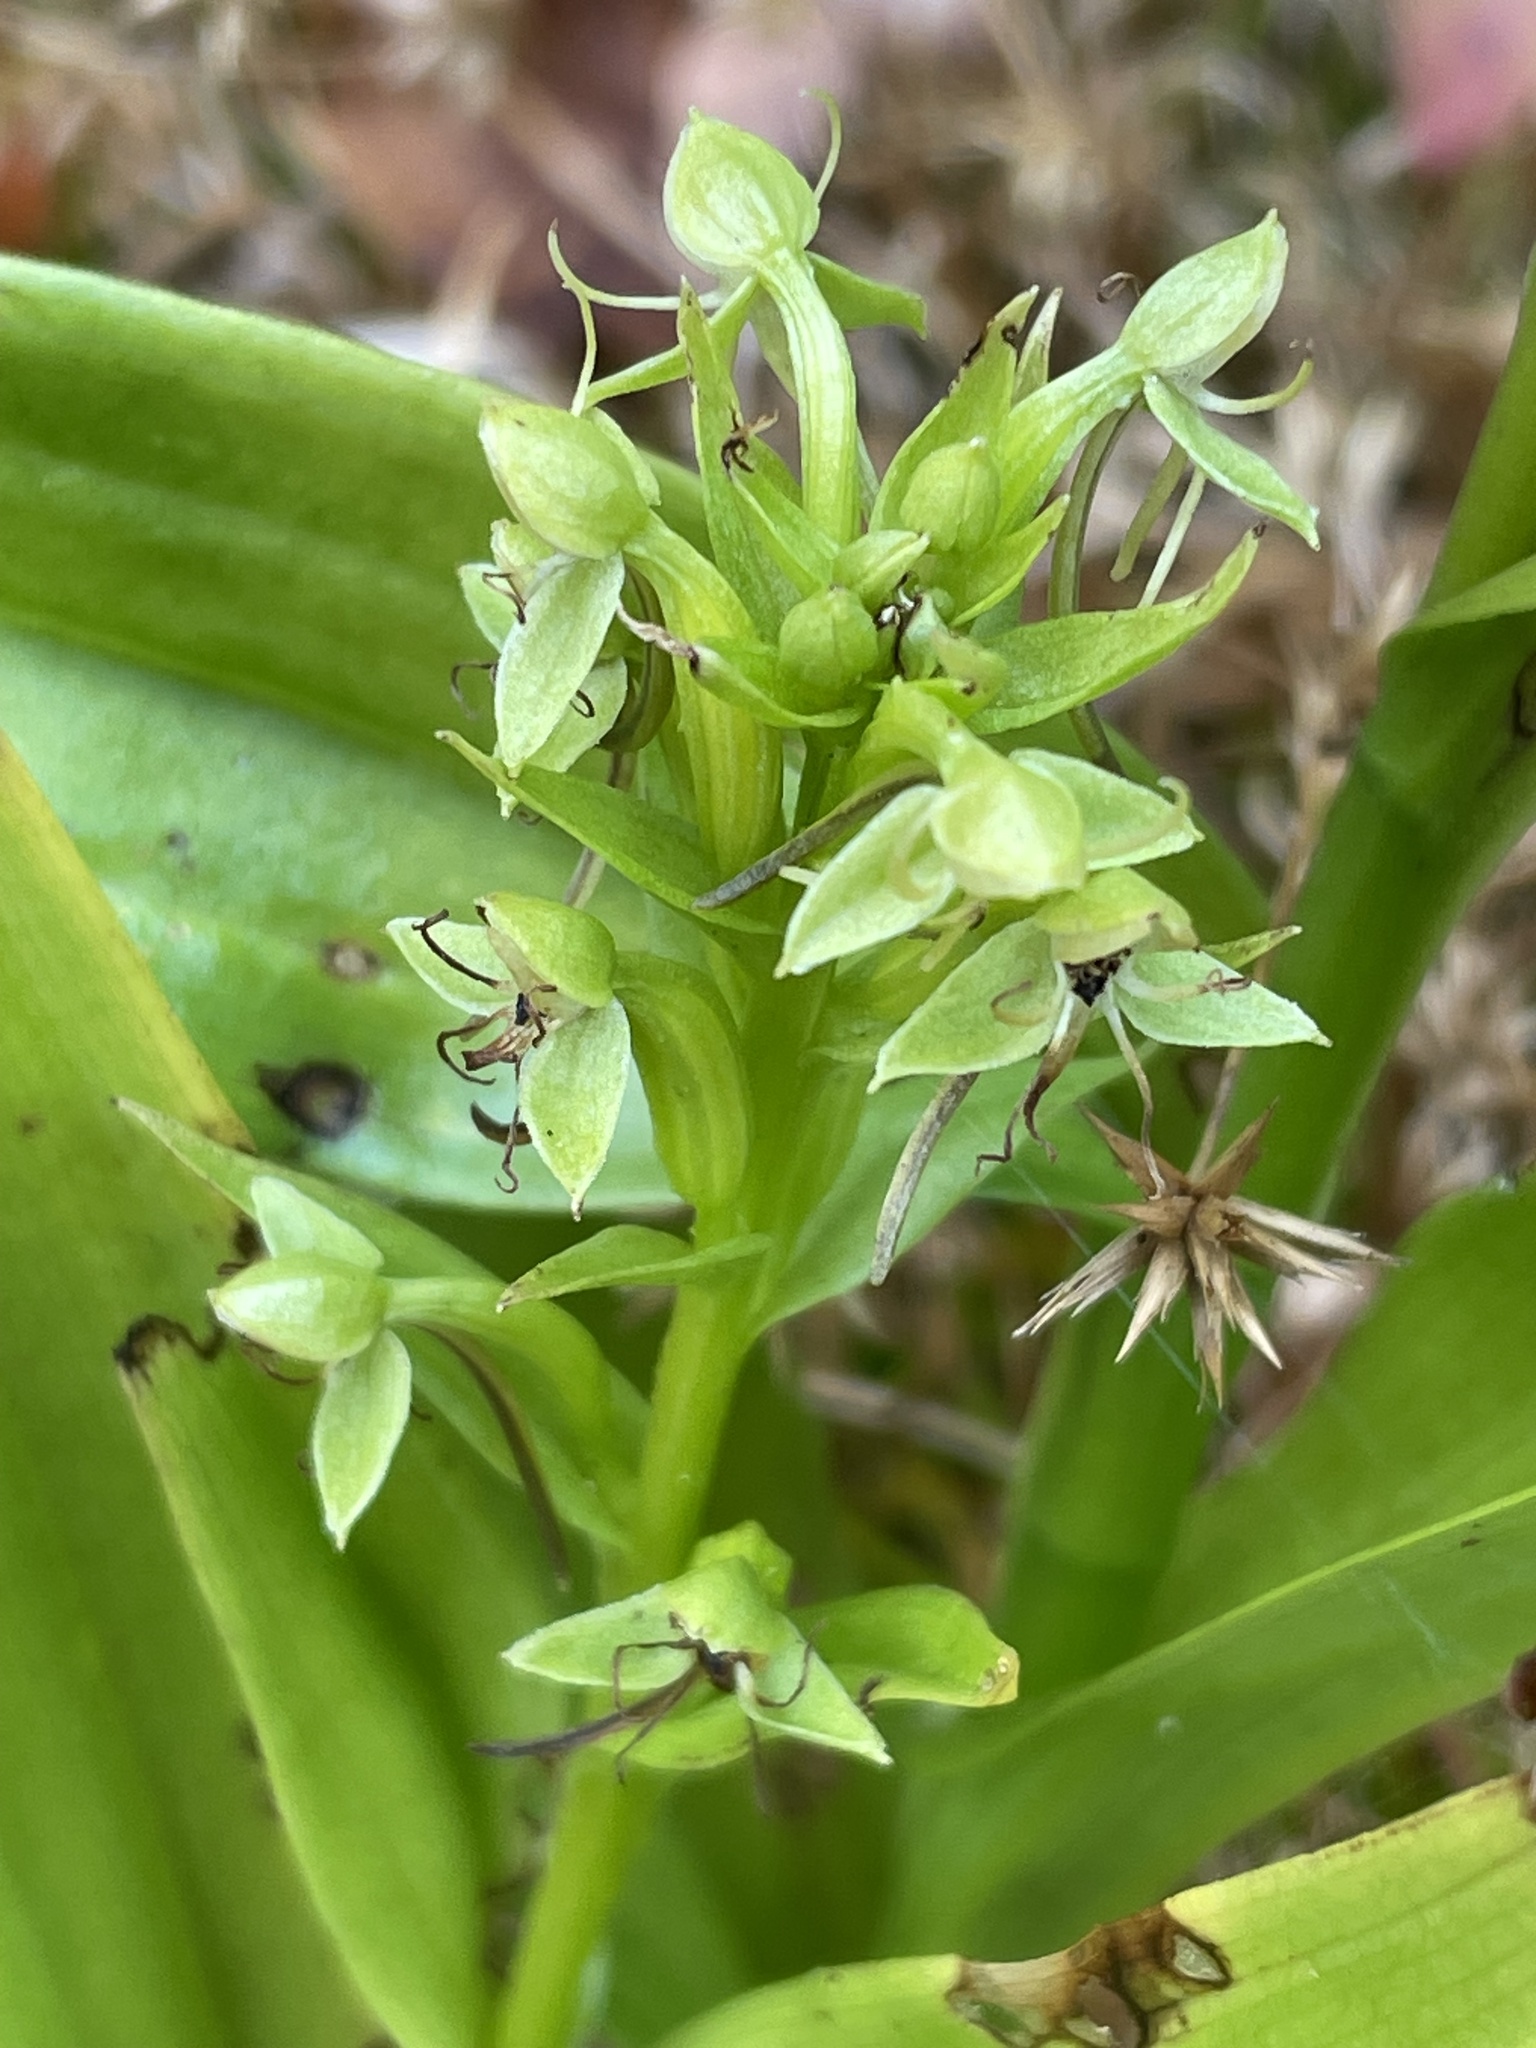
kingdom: Plantae
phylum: Tracheophyta
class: Liliopsida
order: Asparagales
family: Orchidaceae
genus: Habenaria
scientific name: Habenaria repens
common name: Water orchid
